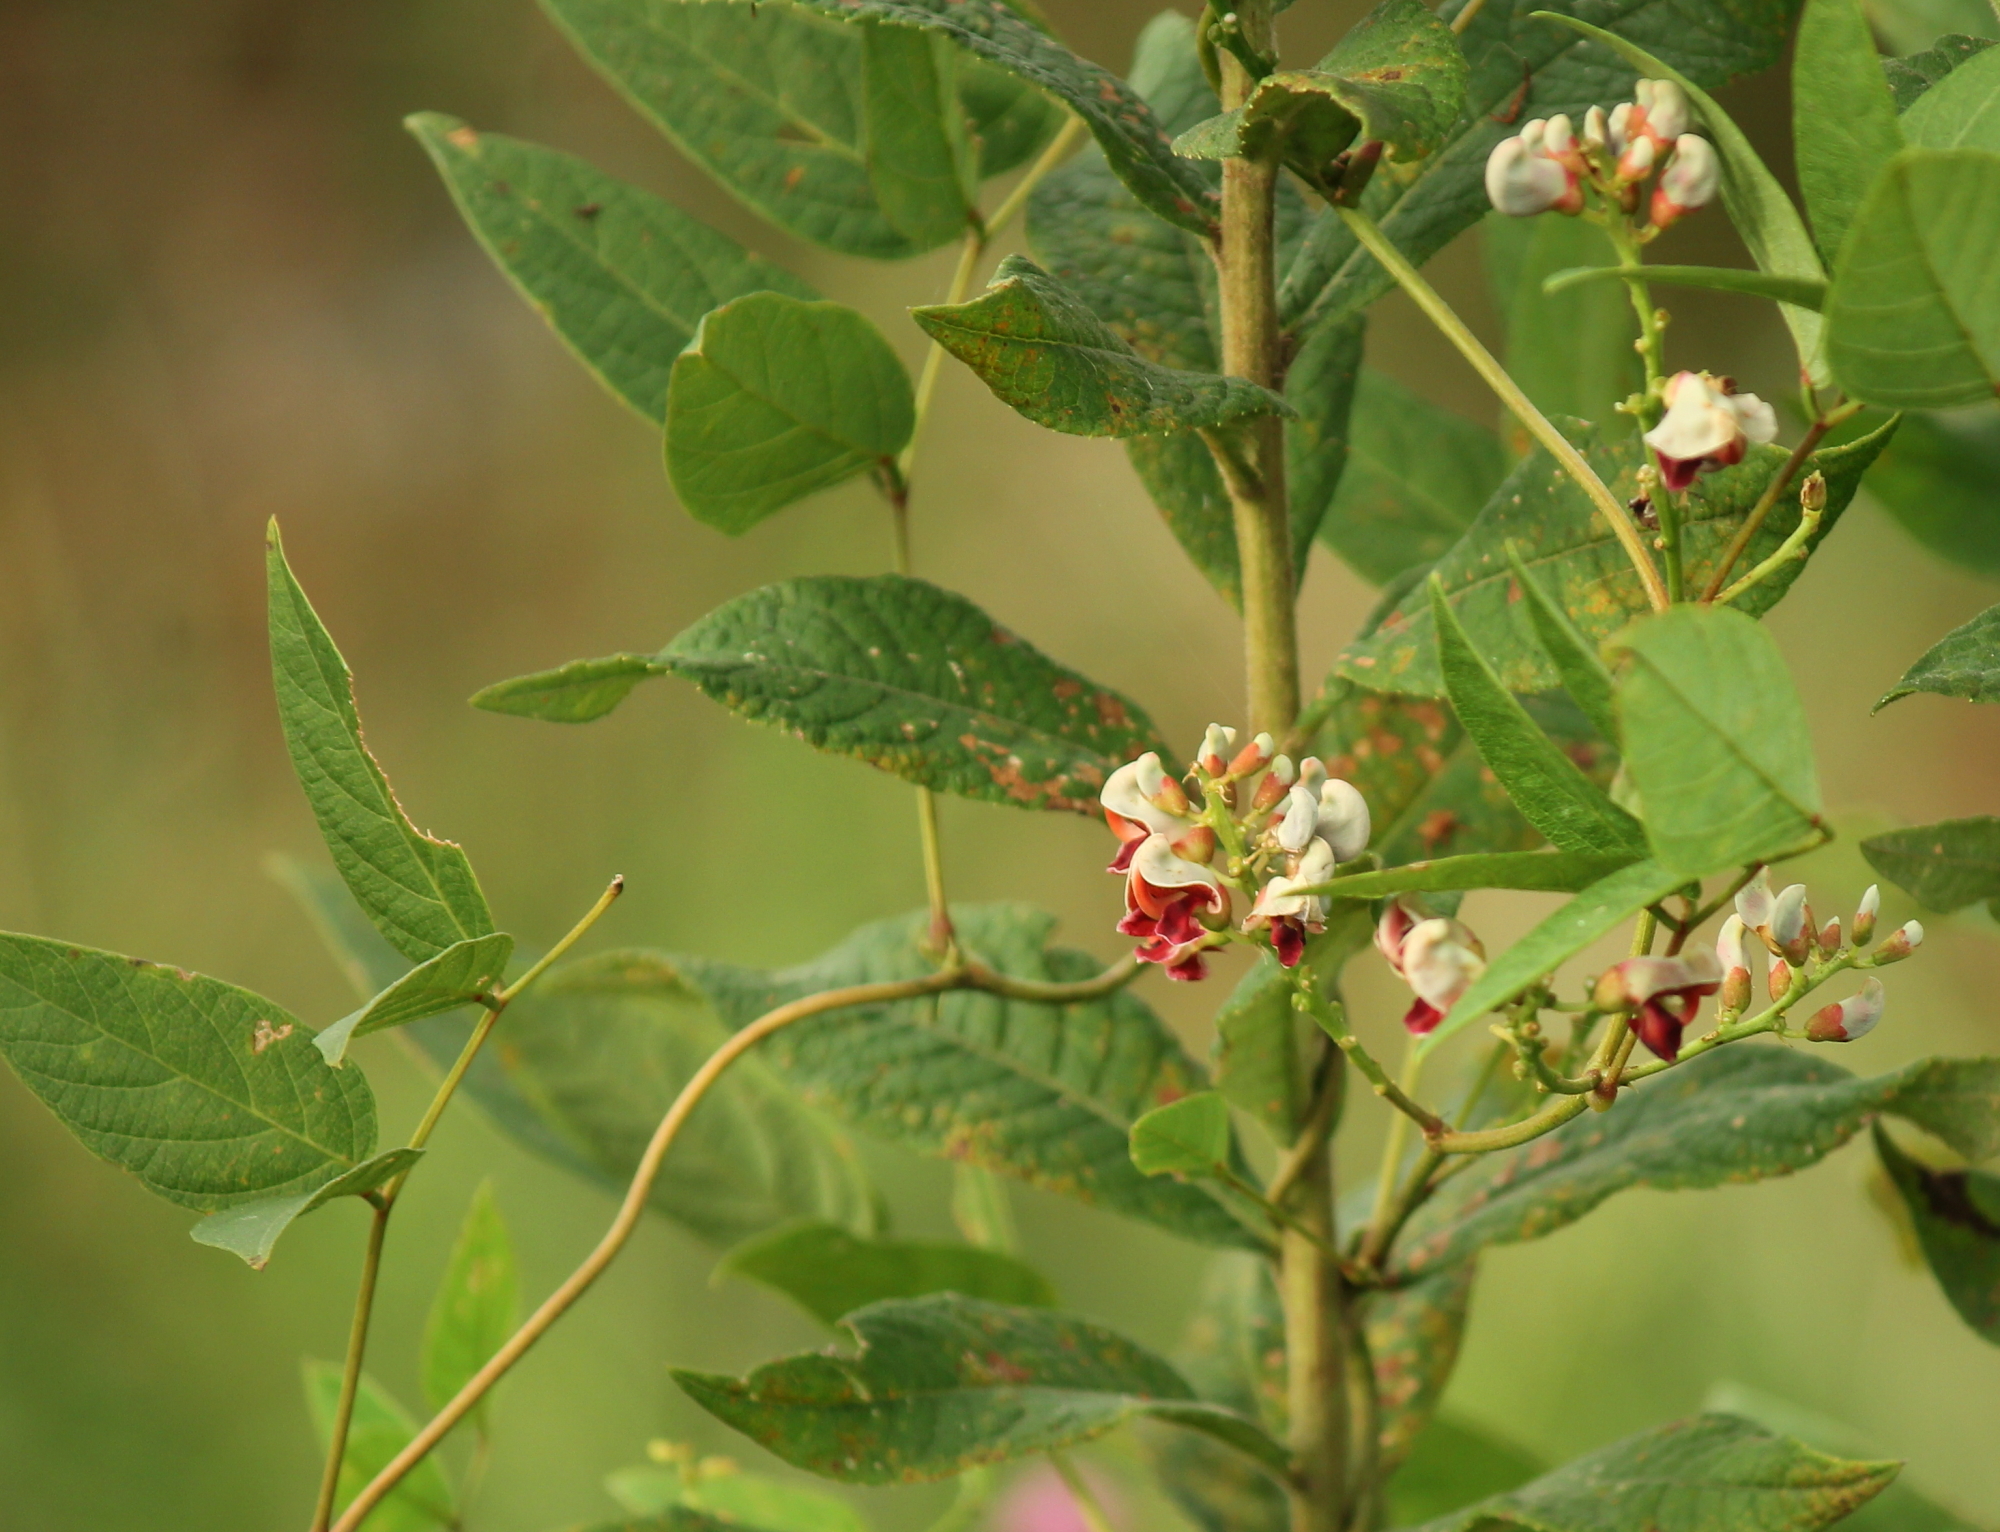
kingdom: Plantae
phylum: Tracheophyta
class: Magnoliopsida
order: Fabales
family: Fabaceae
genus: Apios
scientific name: Apios americana
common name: American potato-bean
